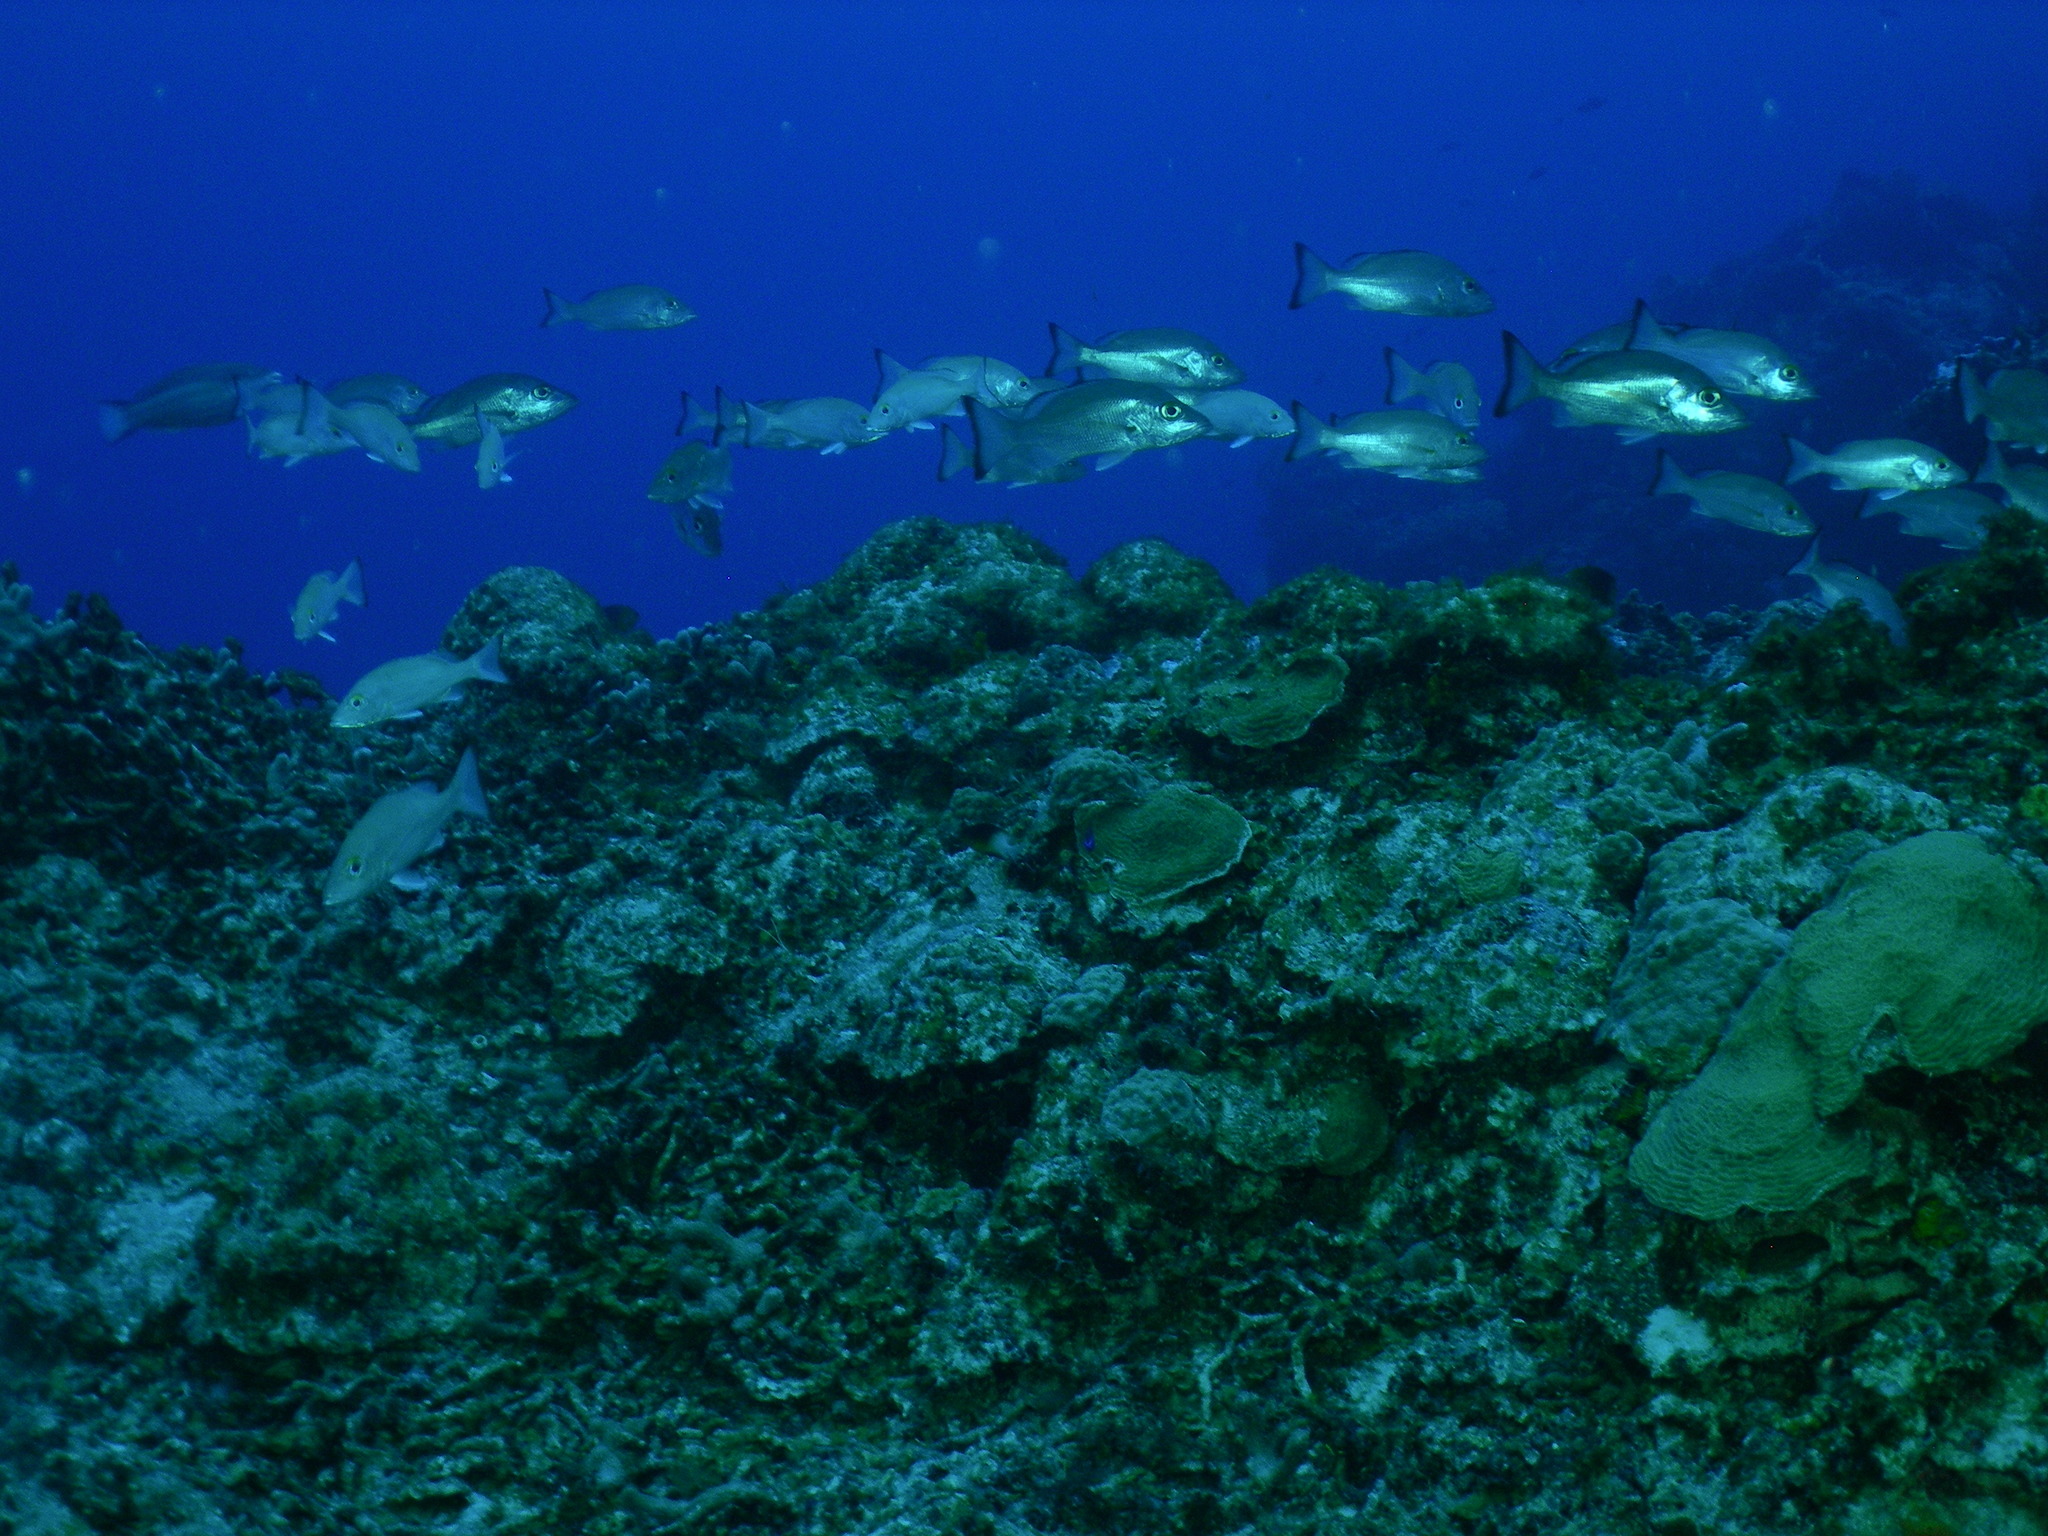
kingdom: Animalia
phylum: Chordata
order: Perciformes
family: Lutjanidae
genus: Lutjanus
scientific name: Lutjanus mahogoni
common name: Spot snapper
